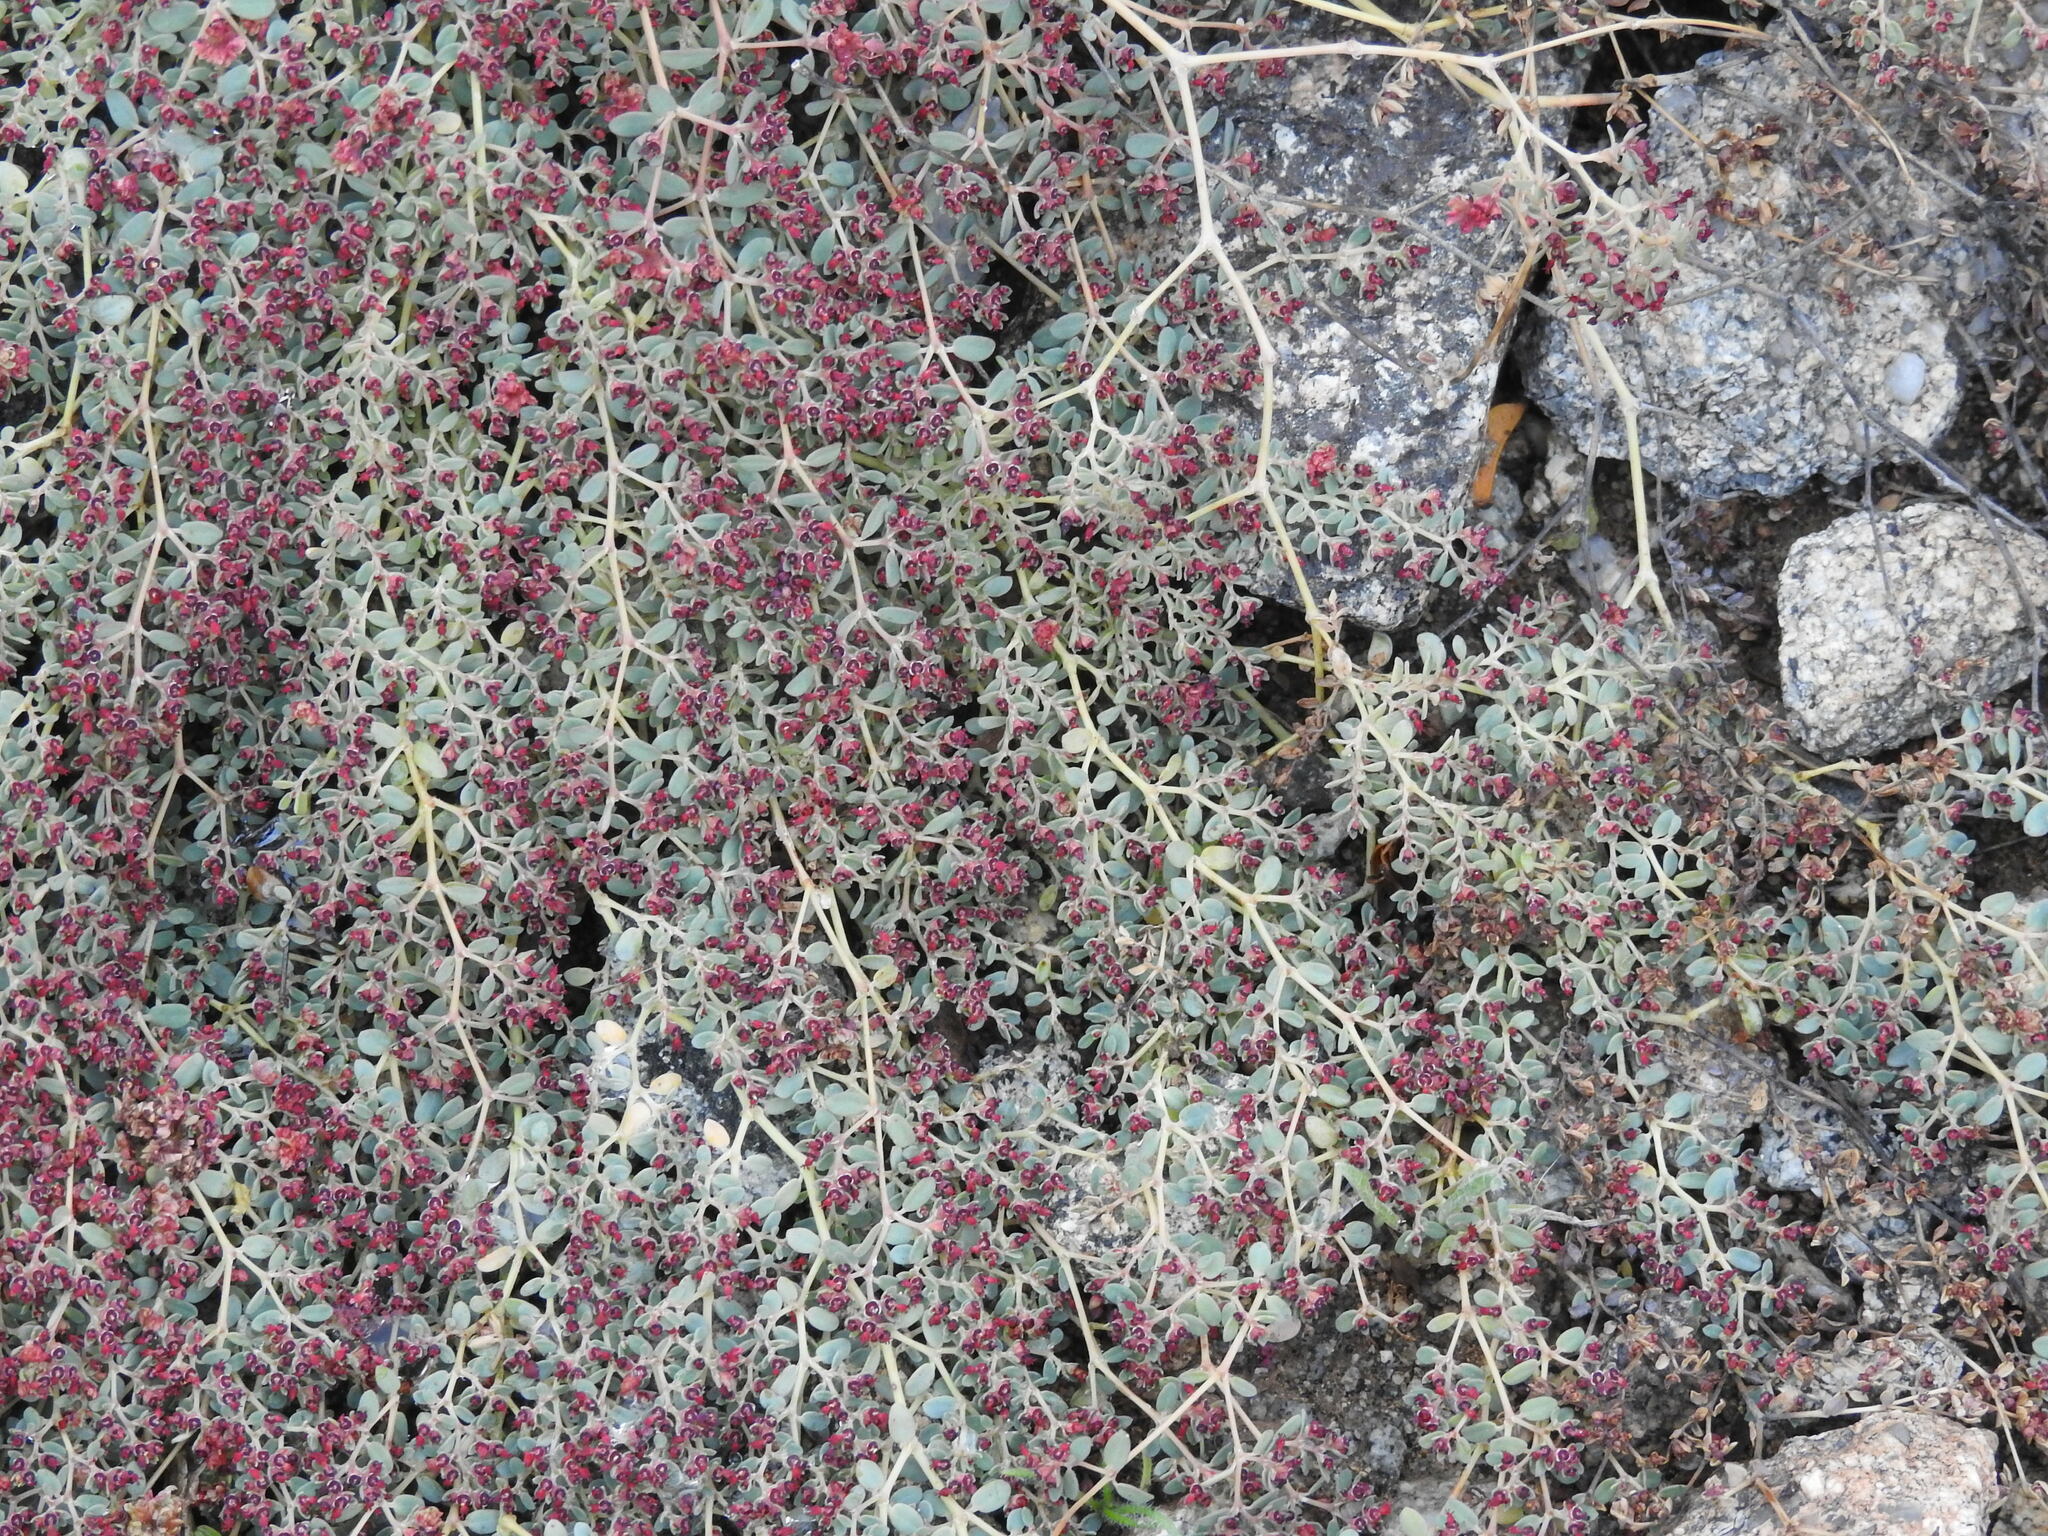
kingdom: Plantae
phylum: Tracheophyta
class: Magnoliopsida
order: Malpighiales
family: Euphorbiaceae
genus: Euphorbia
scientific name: Euphorbia polycarpa
